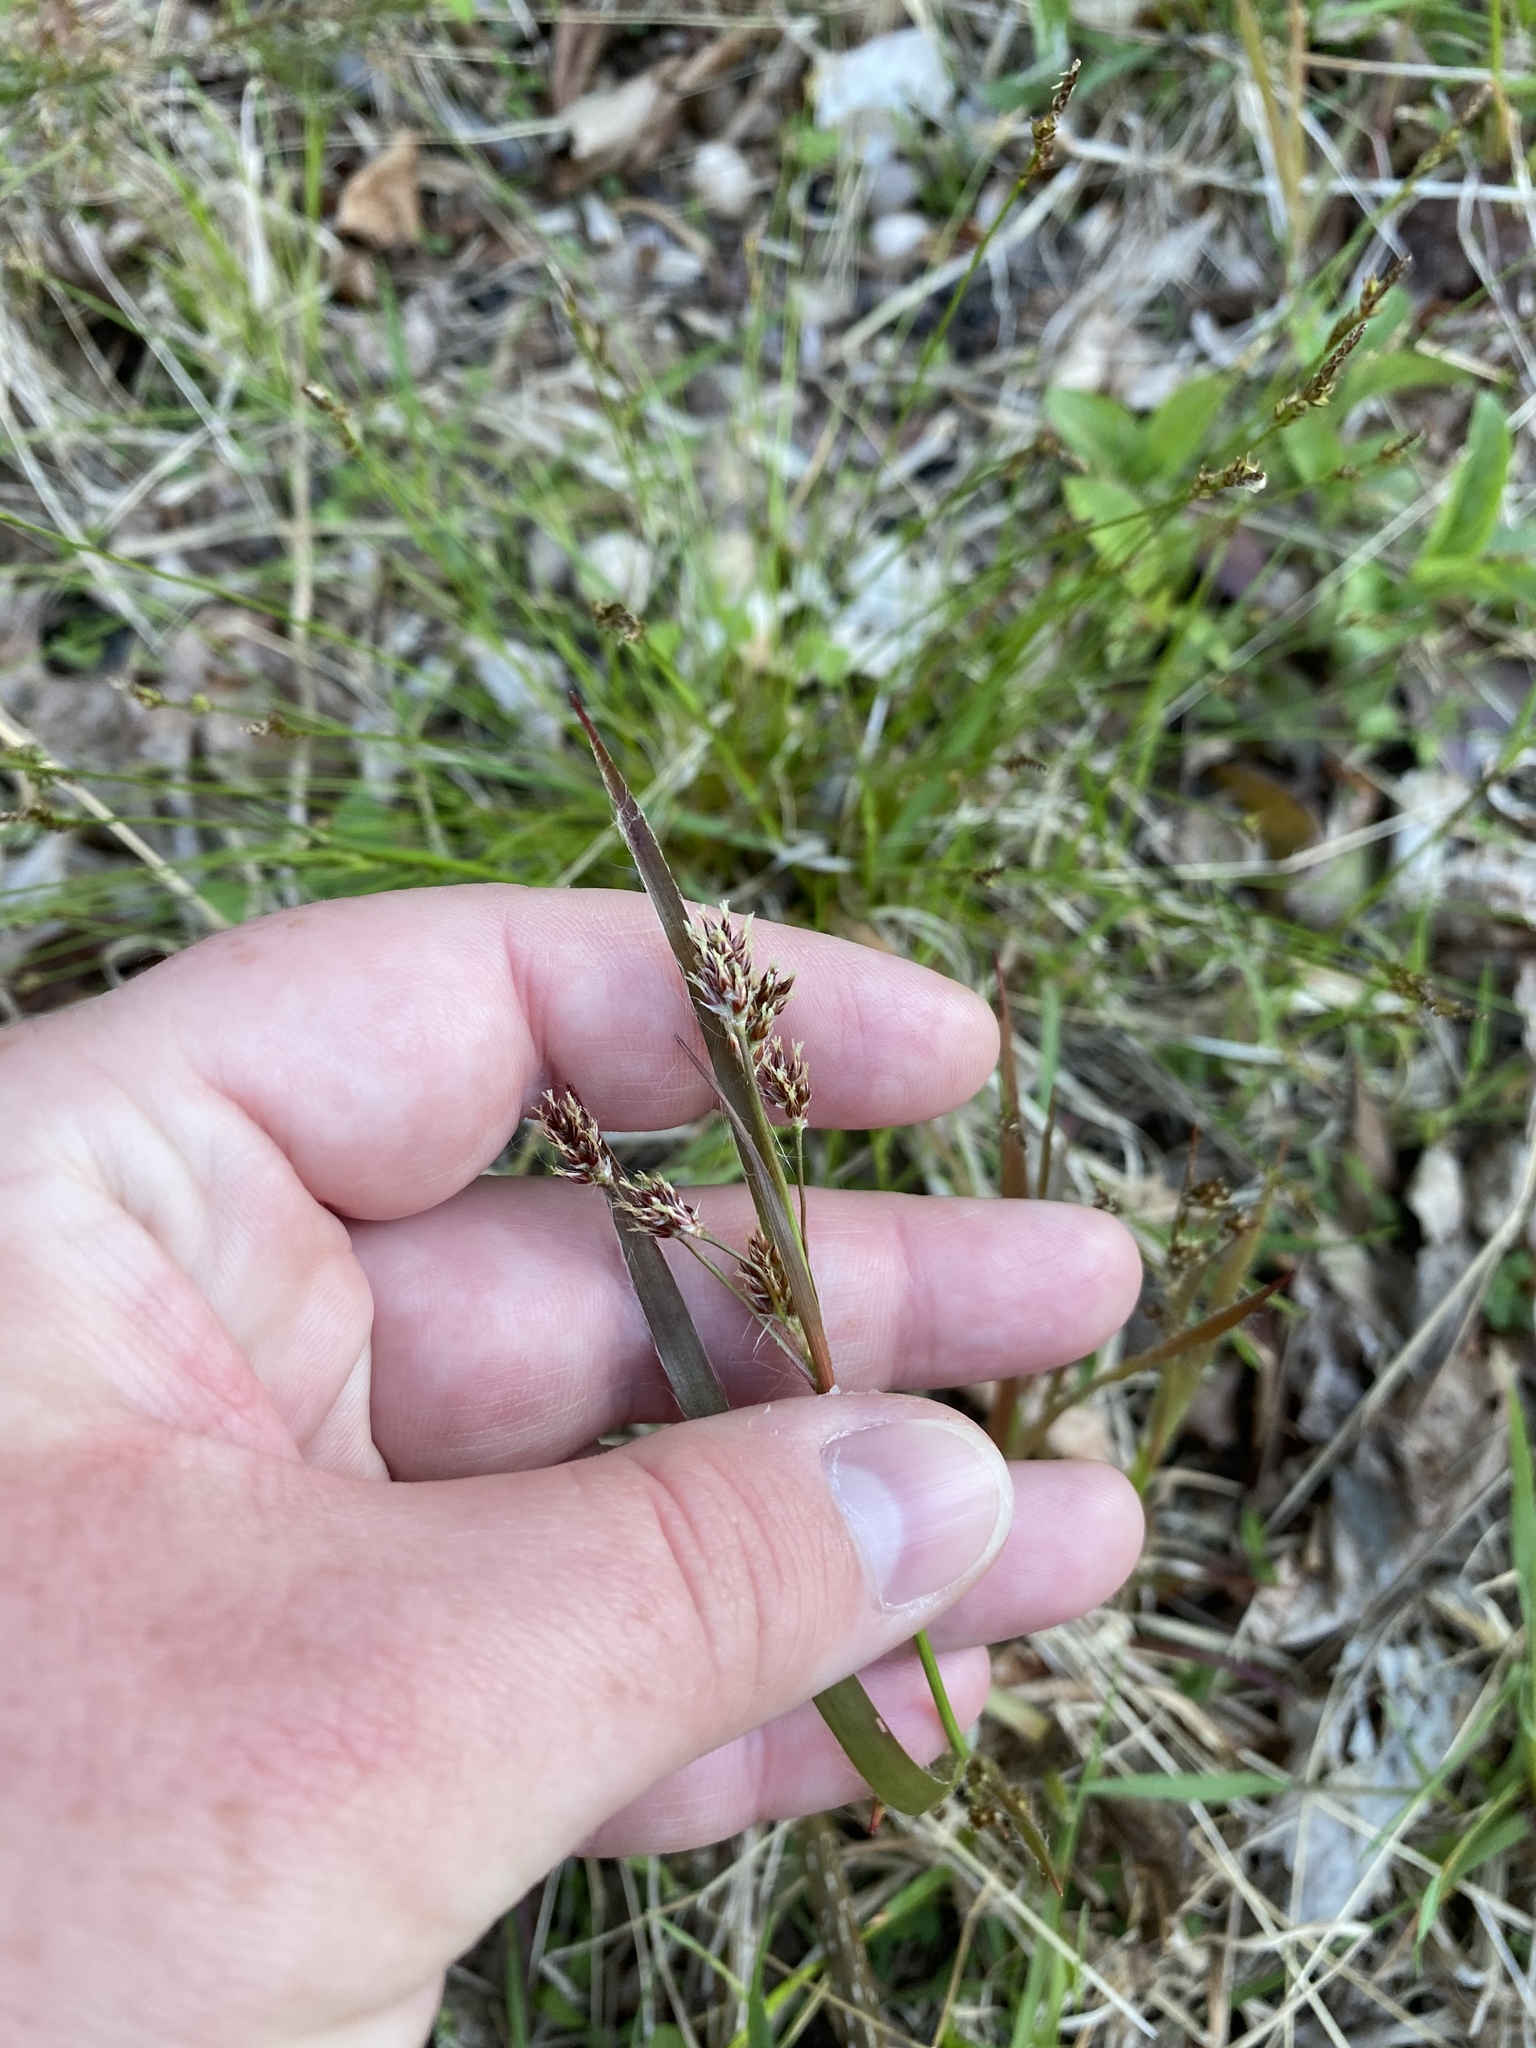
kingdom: Plantae
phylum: Tracheophyta
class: Liliopsida
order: Poales
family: Juncaceae
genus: Luzula
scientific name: Luzula multiflora
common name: Heath wood-rush
